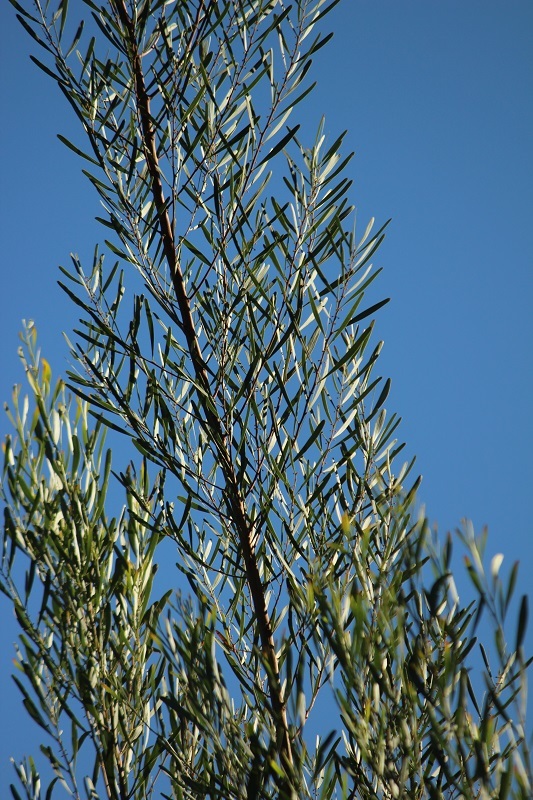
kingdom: Plantae
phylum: Tracheophyta
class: Magnoliopsida
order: Fabales
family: Fabaceae
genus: Acacia
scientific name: Acacia stricta
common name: Hop wattle
